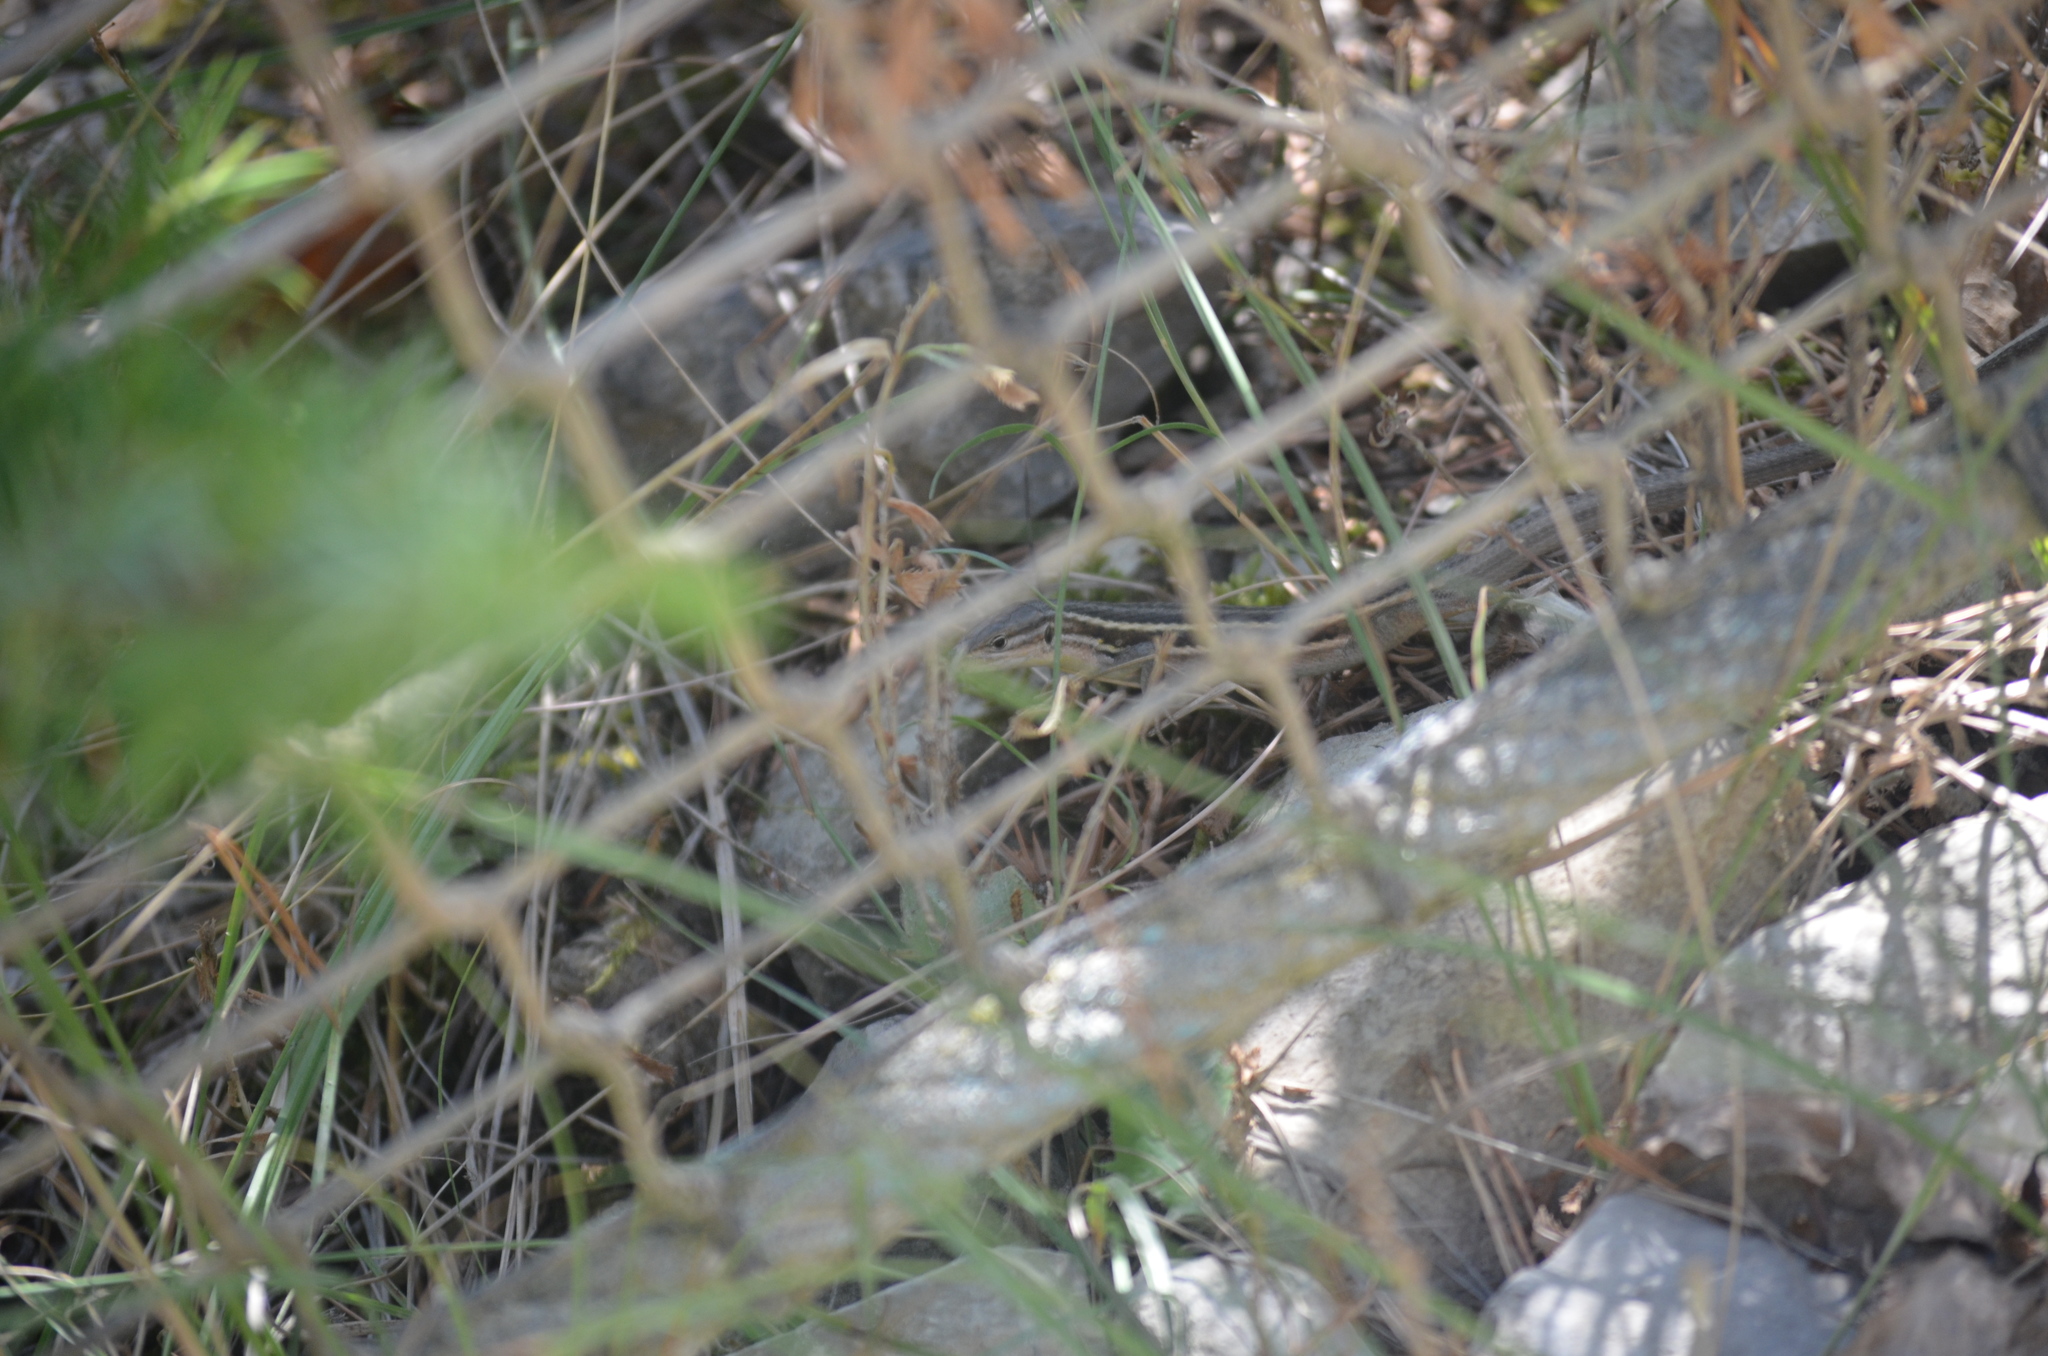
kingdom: Animalia
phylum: Chordata
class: Squamata
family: Lacertidae
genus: Psammodromus
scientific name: Psammodromus algirus
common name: Algerian psammodromus
